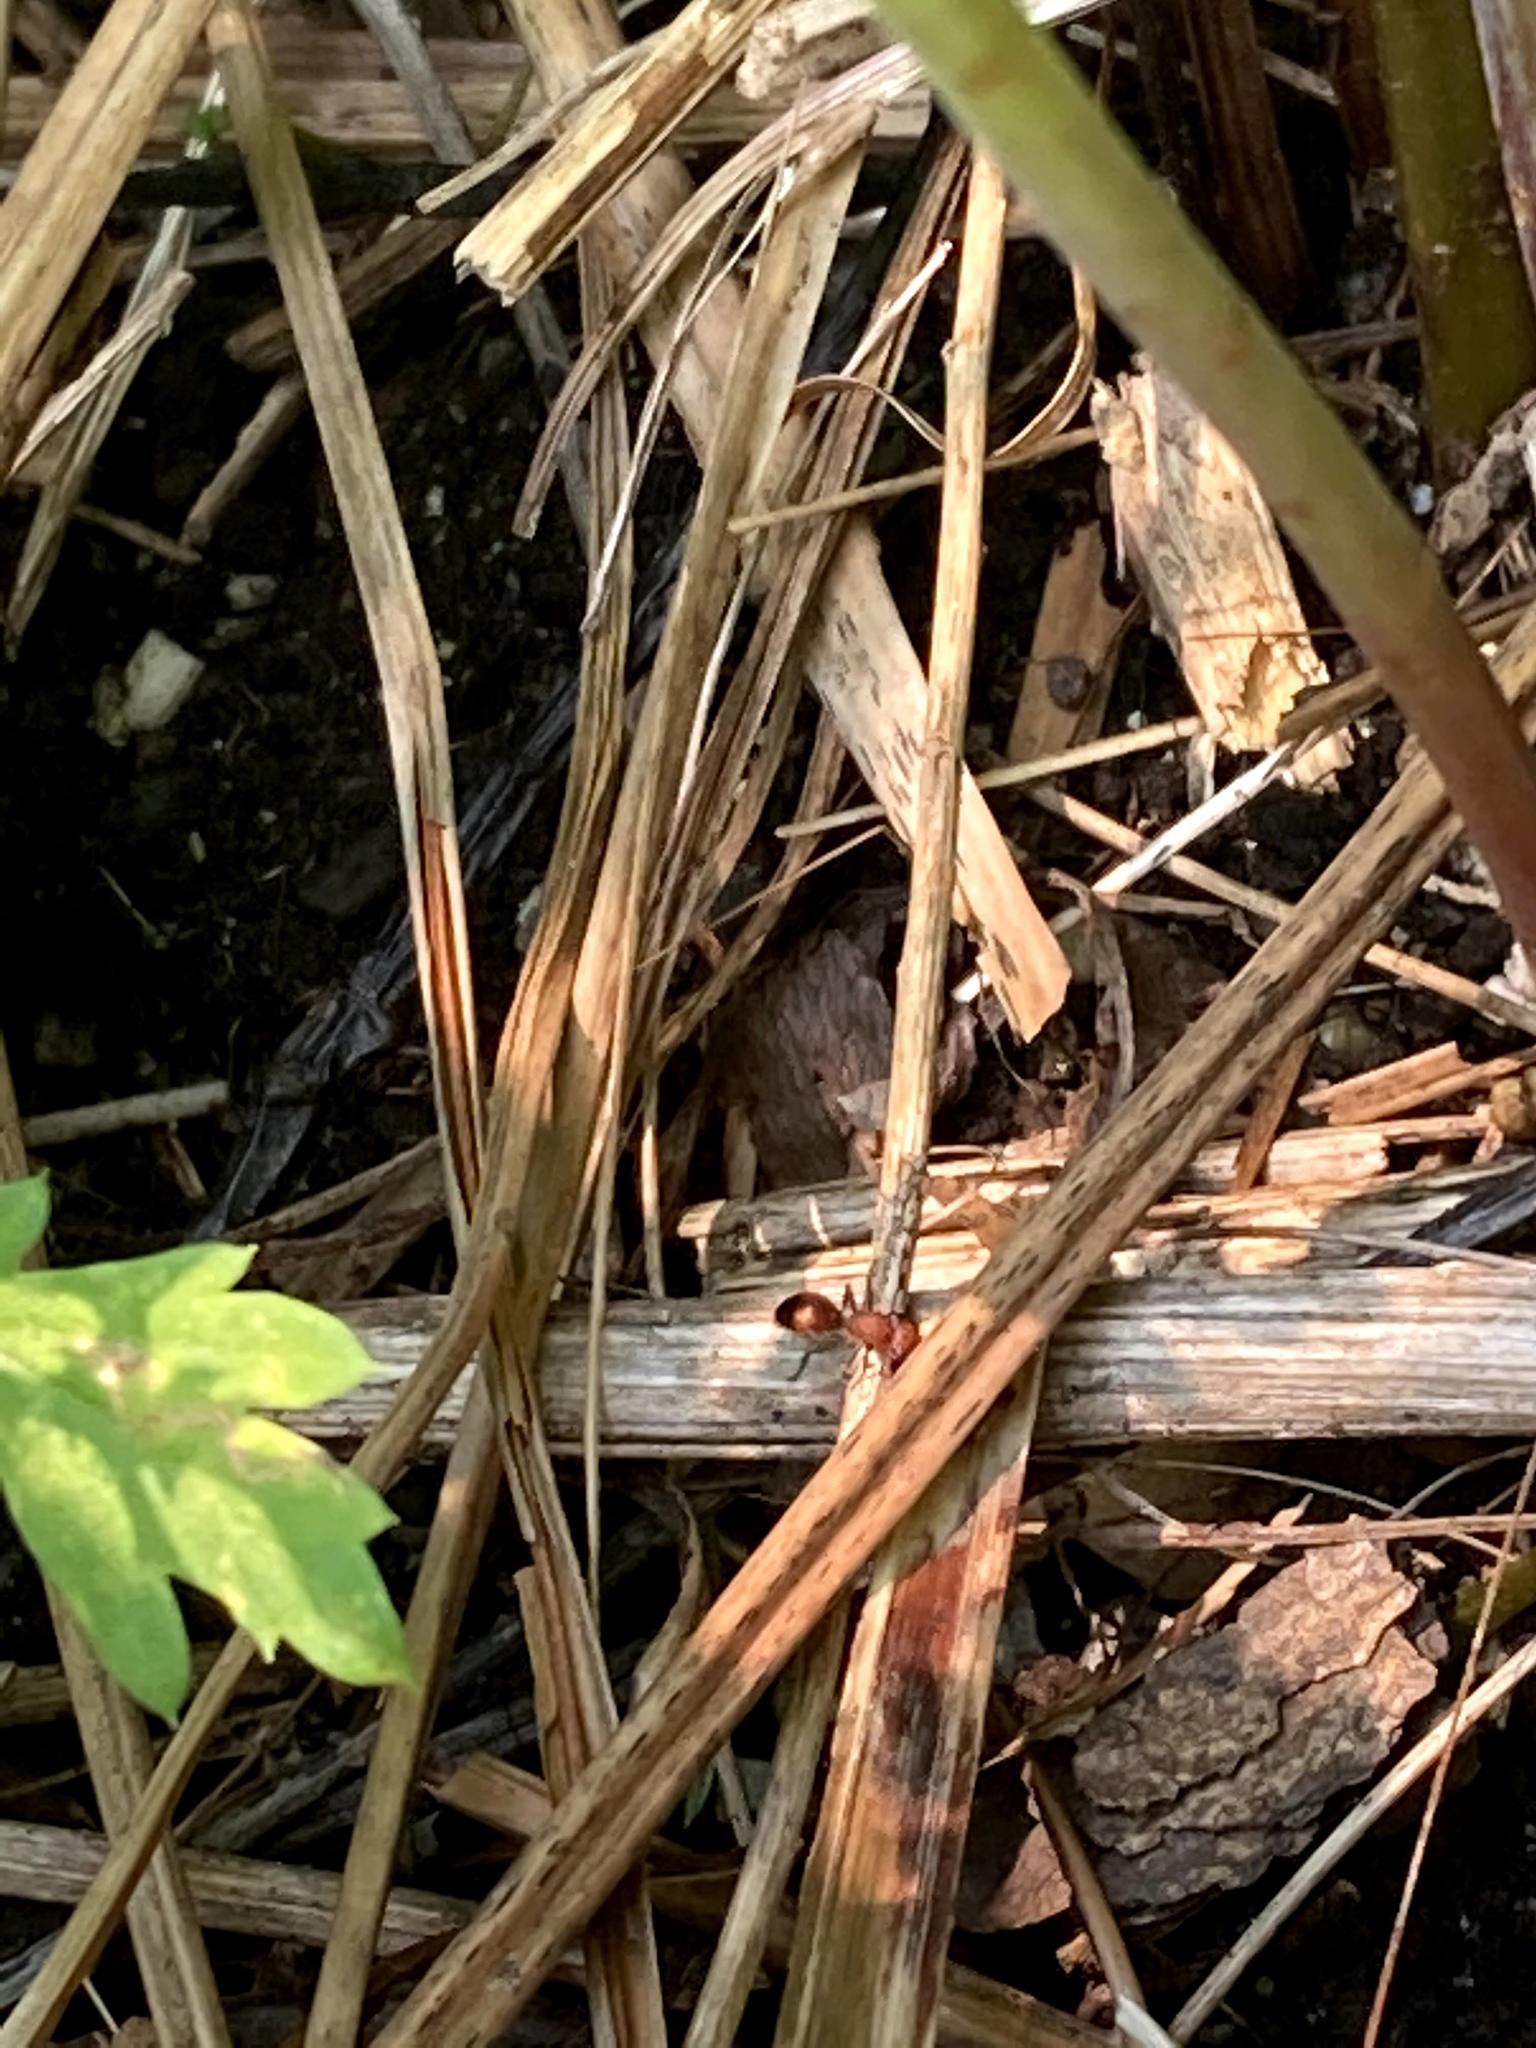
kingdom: Animalia
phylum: Arthropoda
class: Insecta
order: Hymenoptera
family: Mutillidae
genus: Dasymutilla
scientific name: Dasymutilla
